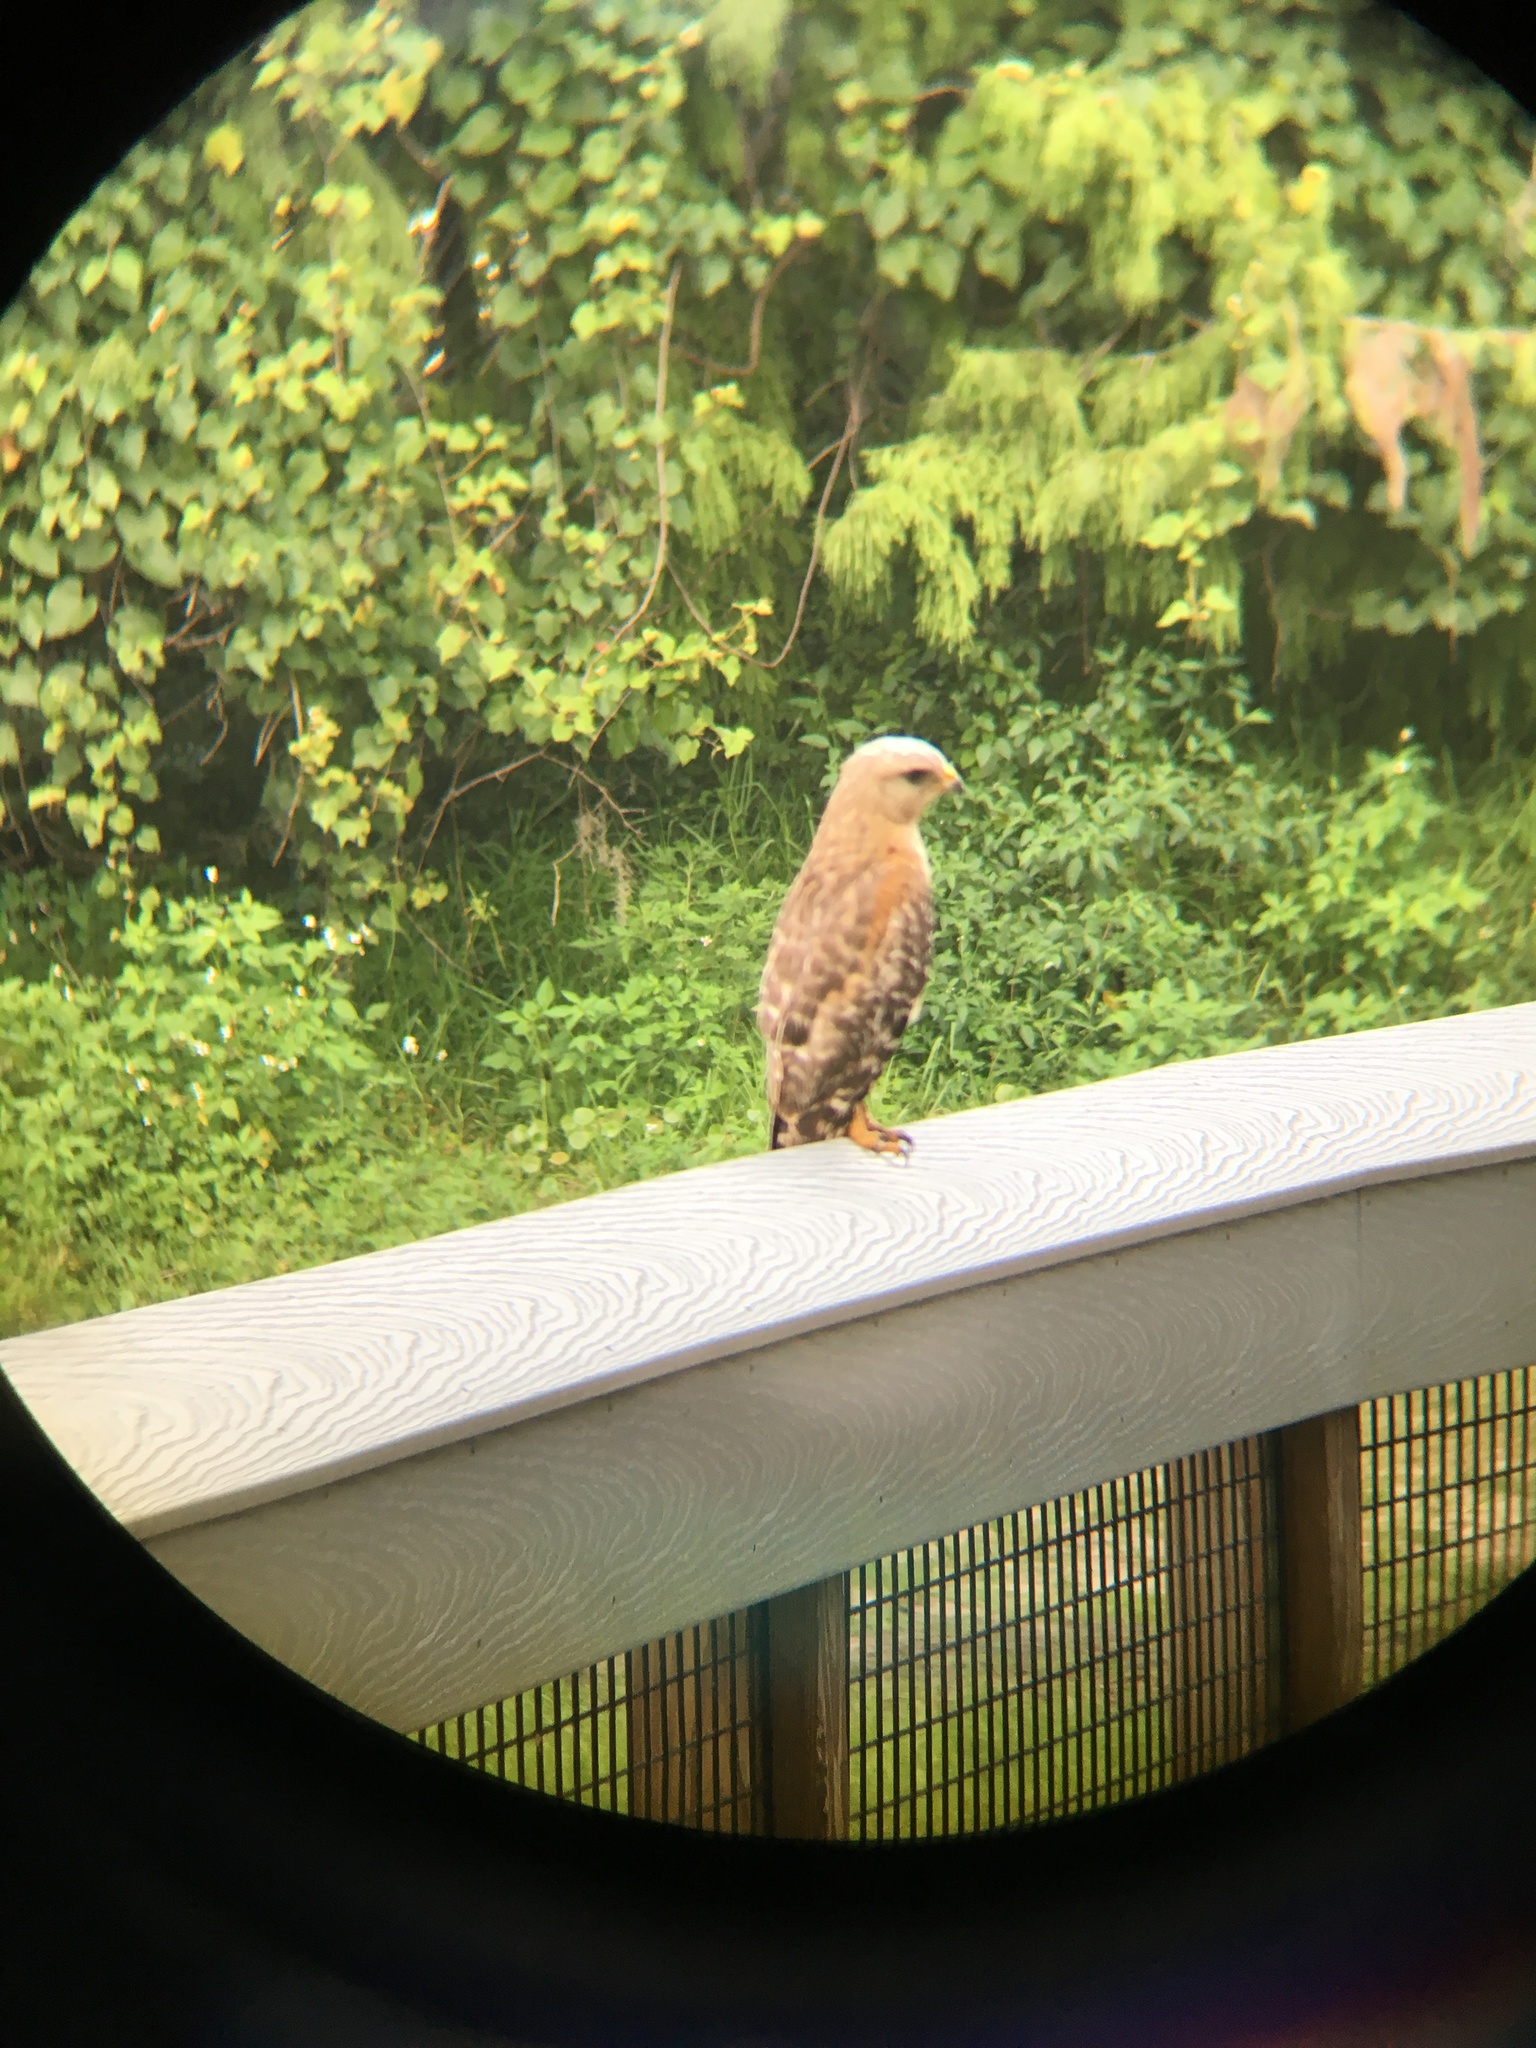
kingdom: Animalia
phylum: Chordata
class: Aves
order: Accipitriformes
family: Accipitridae
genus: Buteo
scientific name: Buteo lineatus
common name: Red-shouldered hawk
